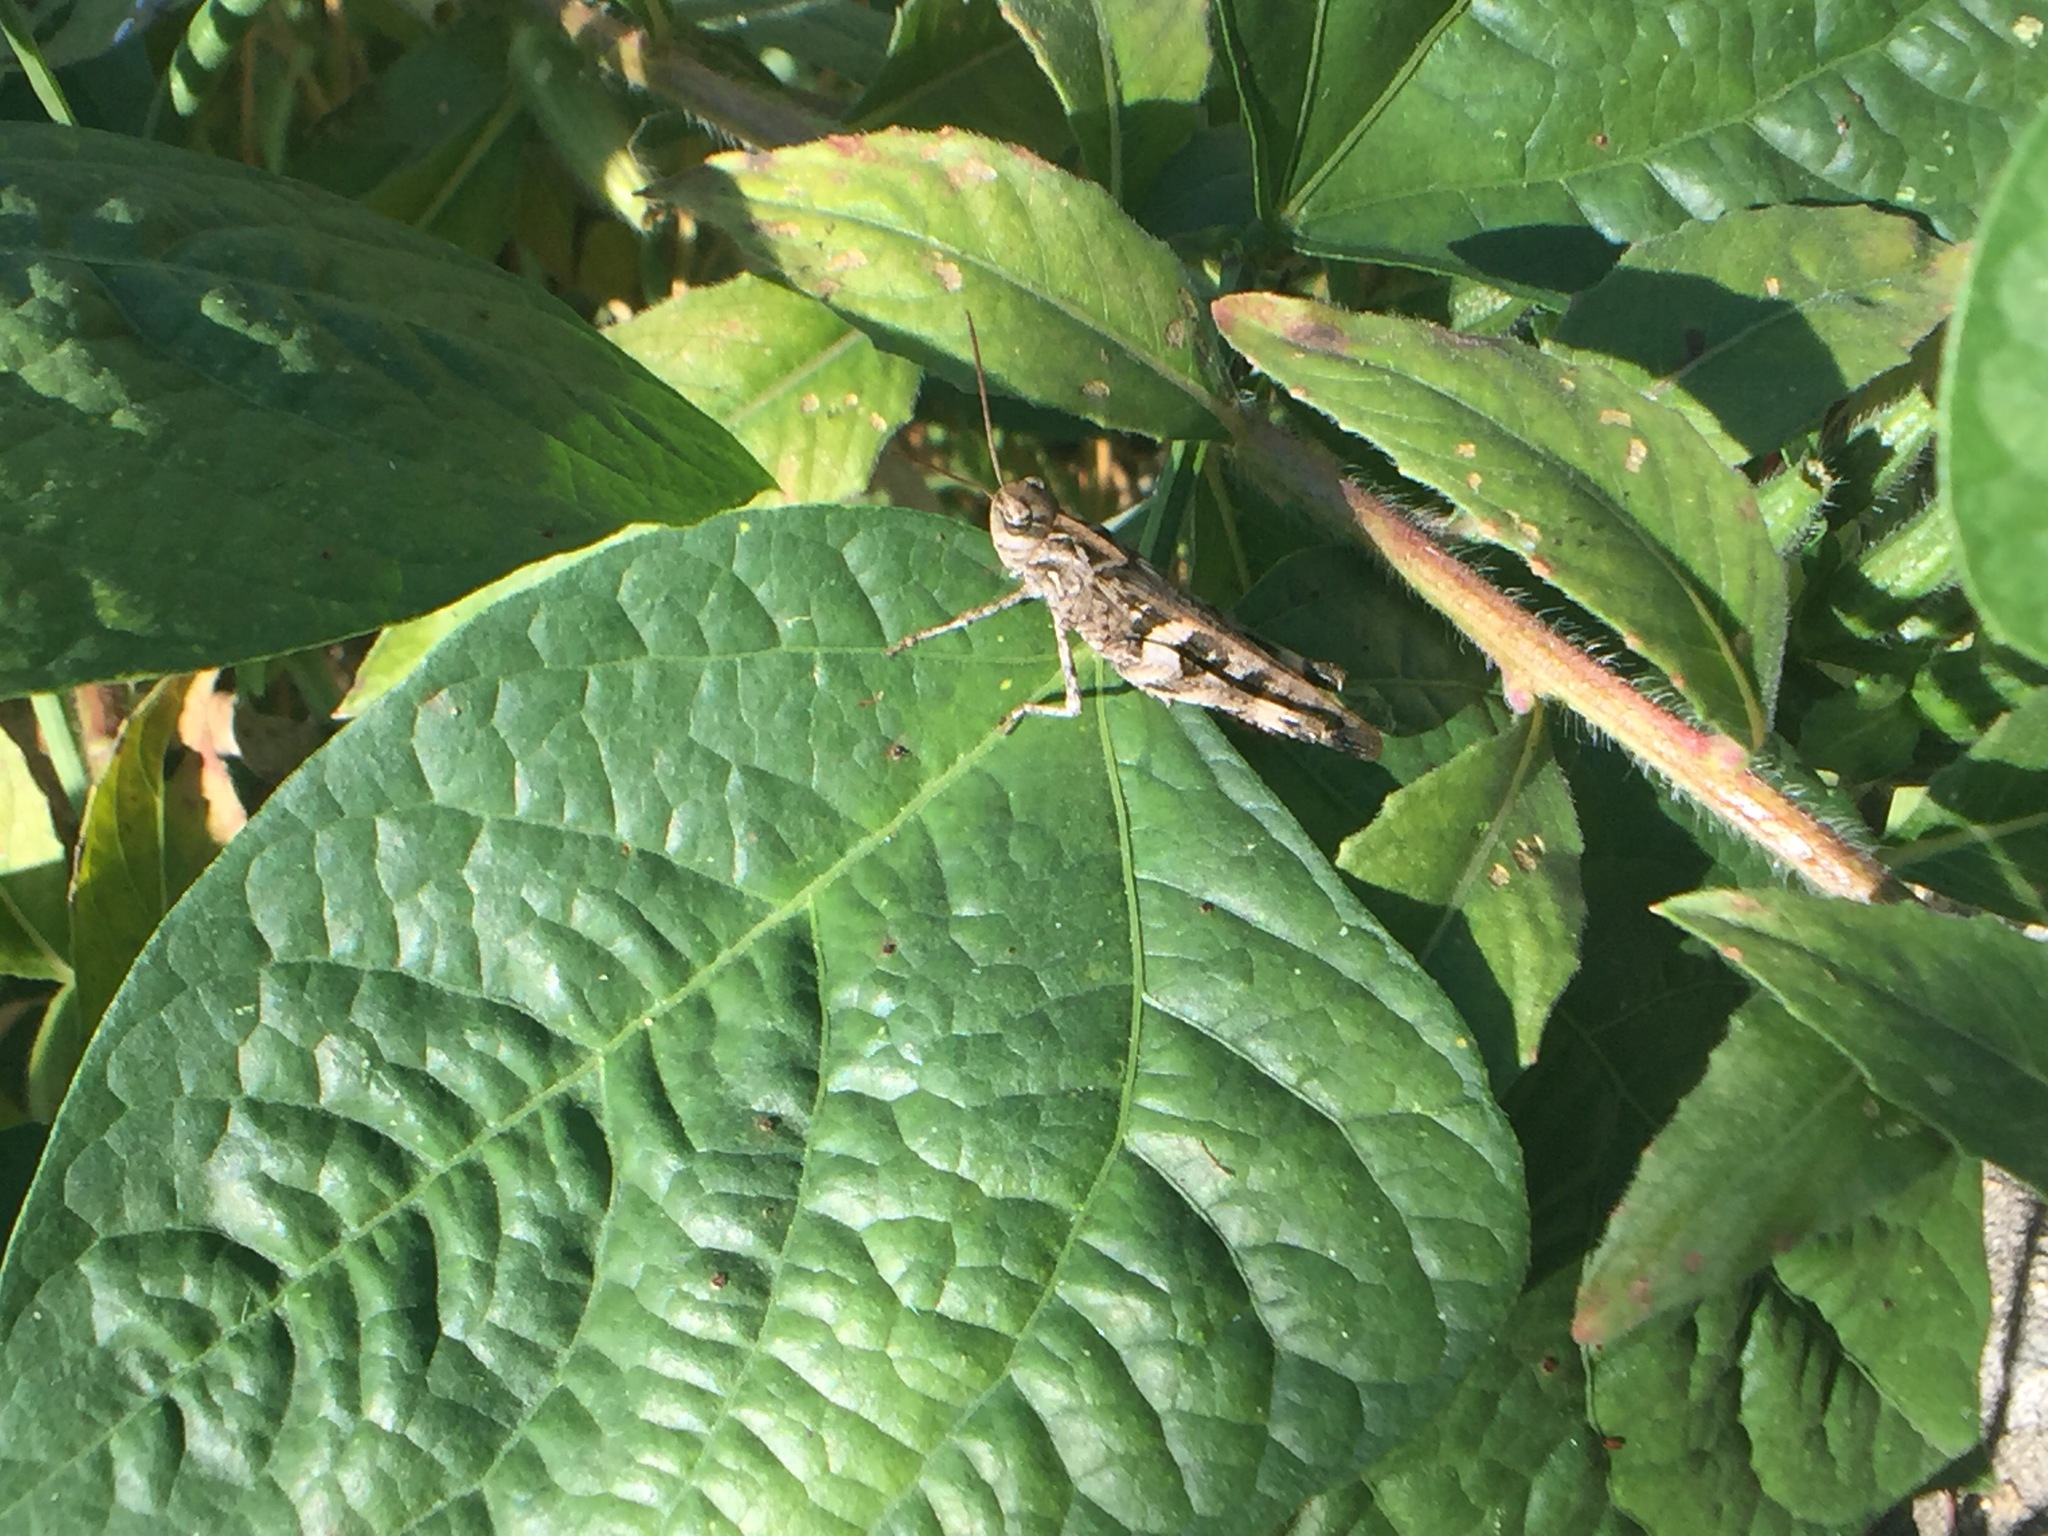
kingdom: Animalia
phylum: Arthropoda
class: Insecta
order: Orthoptera
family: Acrididae
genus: Oedaleus
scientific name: Oedaleus infernalis
